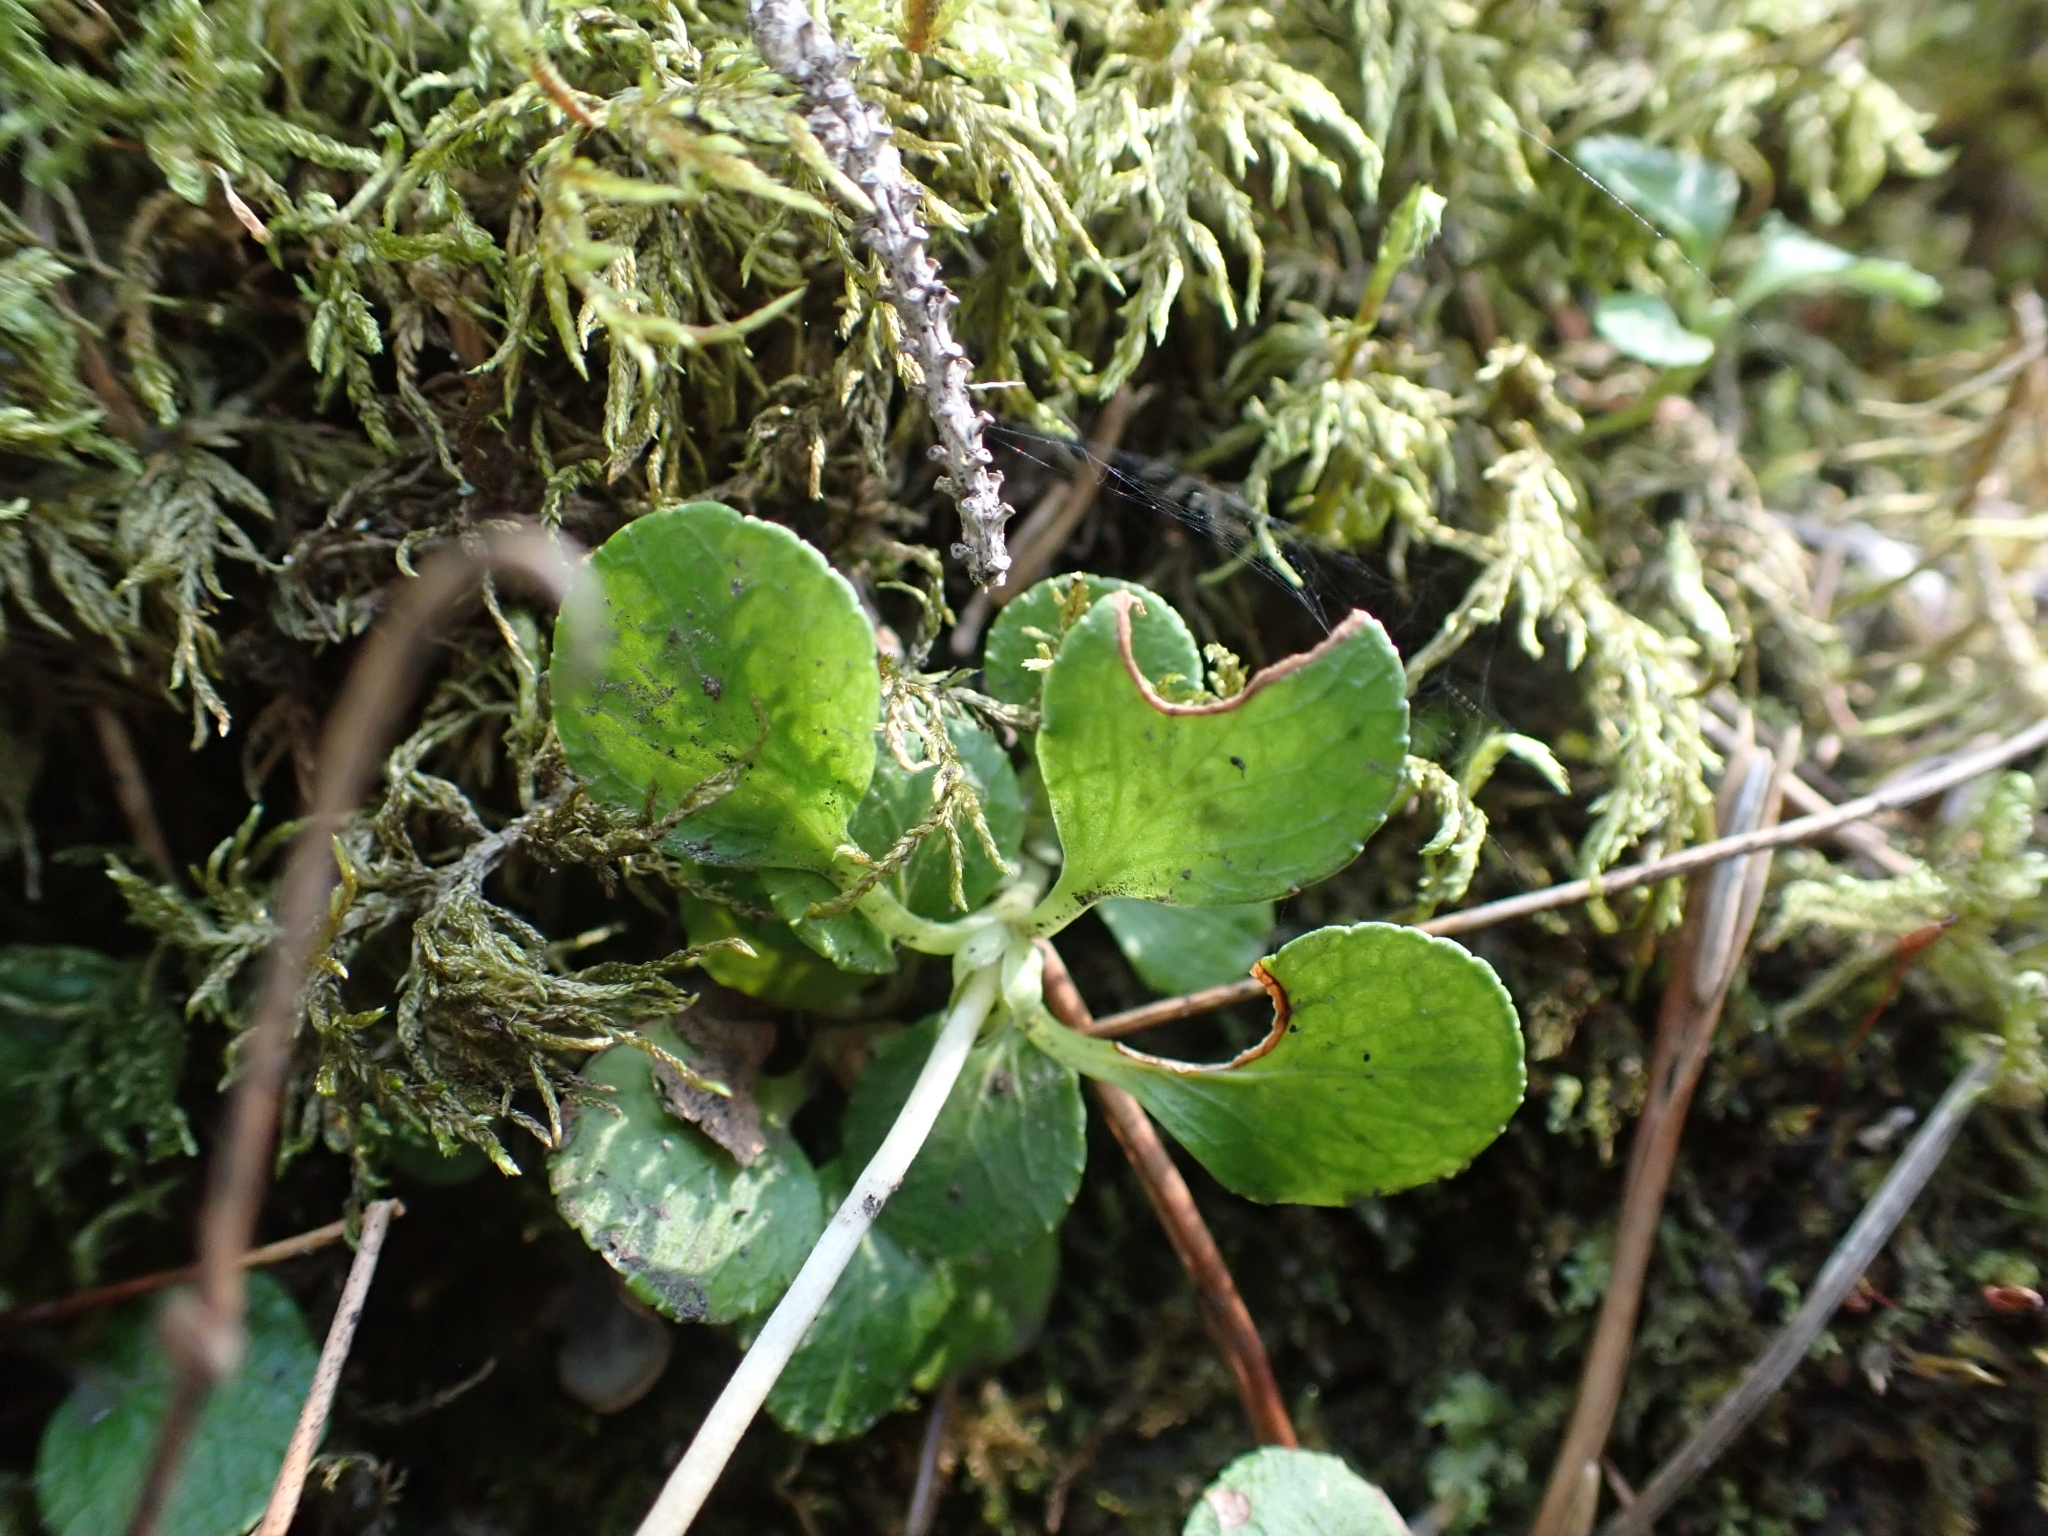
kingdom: Plantae
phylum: Tracheophyta
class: Magnoliopsida
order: Ericales
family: Ericaceae
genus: Moneses
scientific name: Moneses uniflora
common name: One-flowered wintergreen
